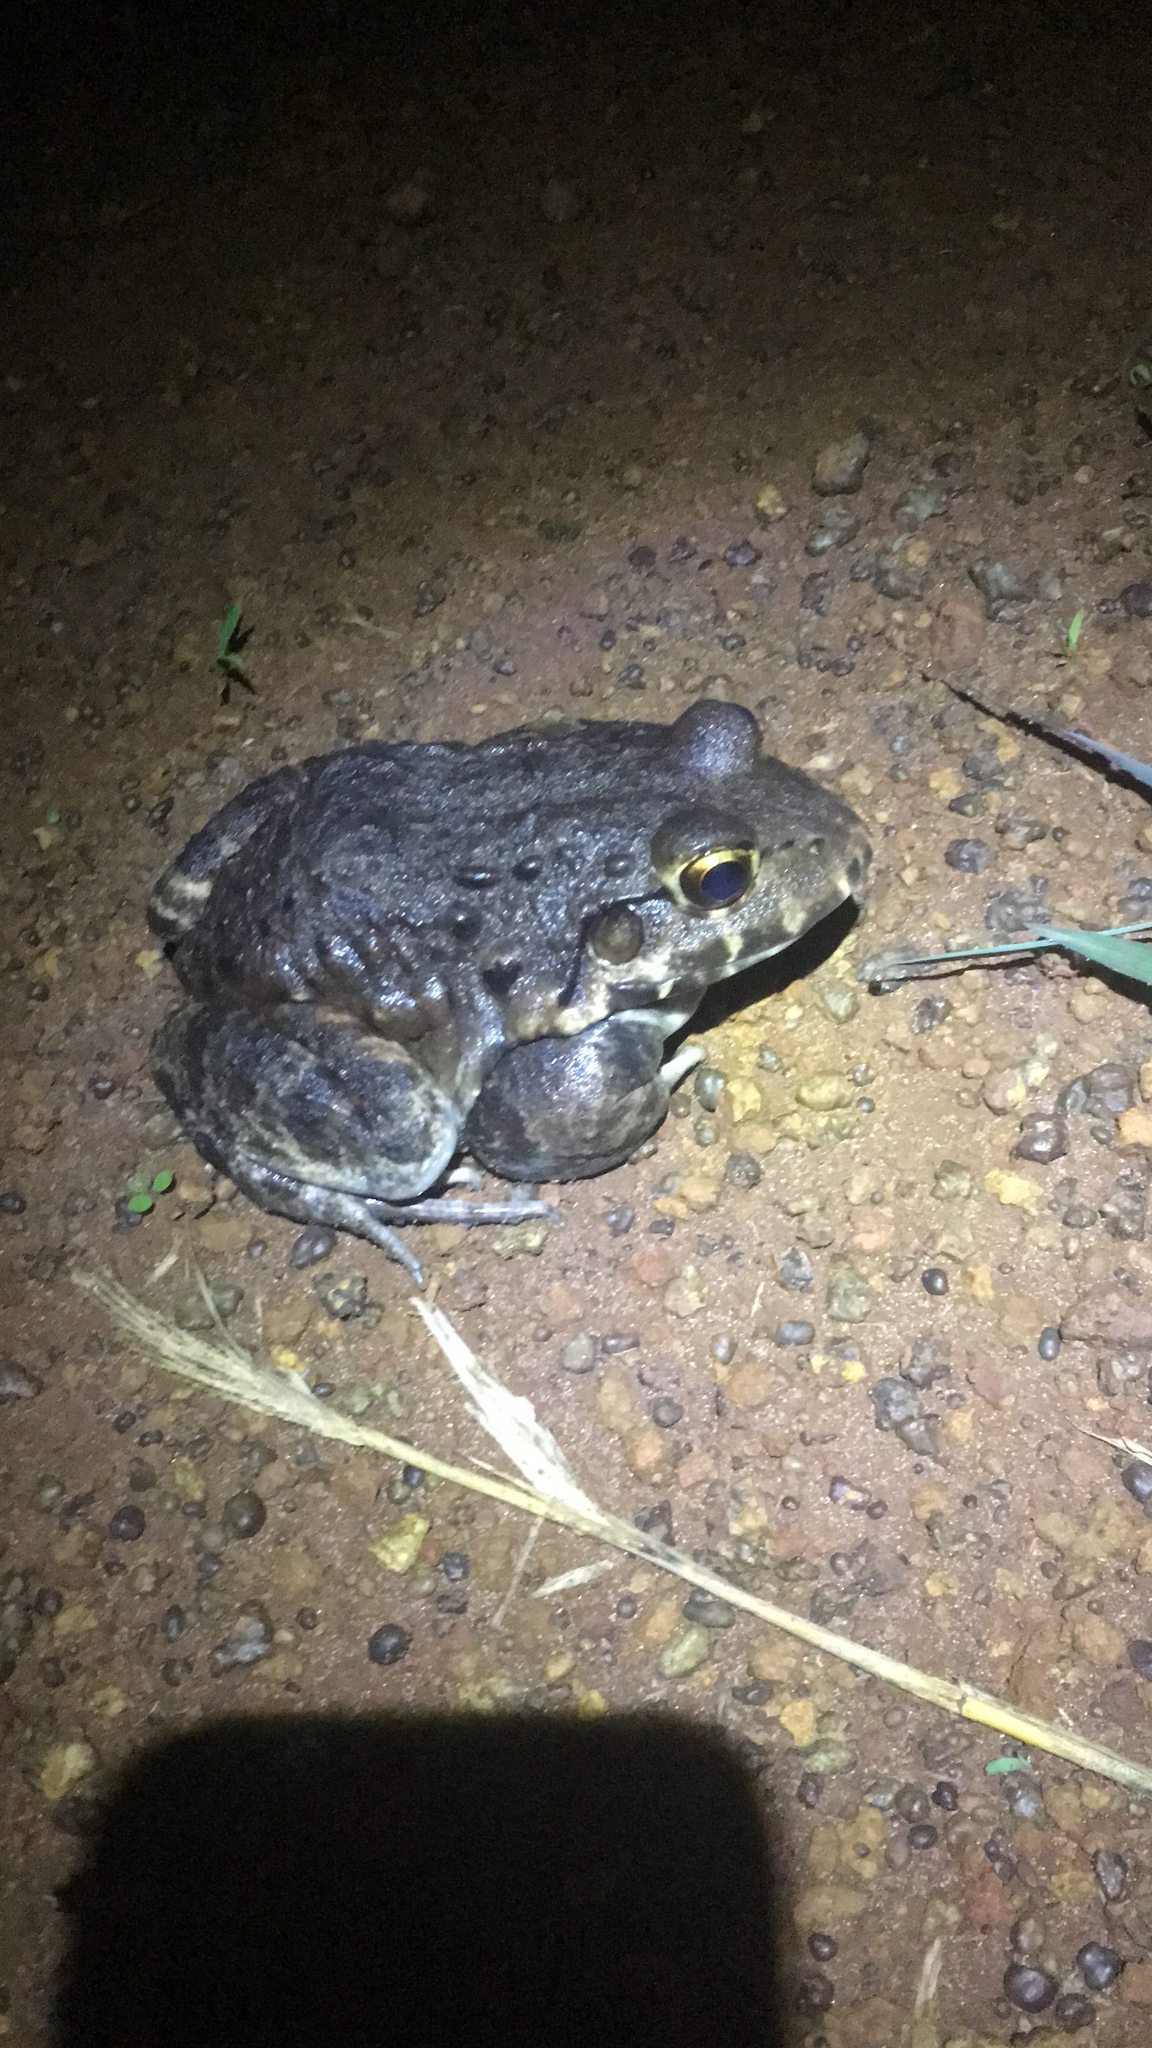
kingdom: Animalia
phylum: Chordata
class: Amphibia
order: Anura
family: Leptodactylidae
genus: Leptodactylus
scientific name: Leptodactylus labyrinthicus
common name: Labyrinth frog
